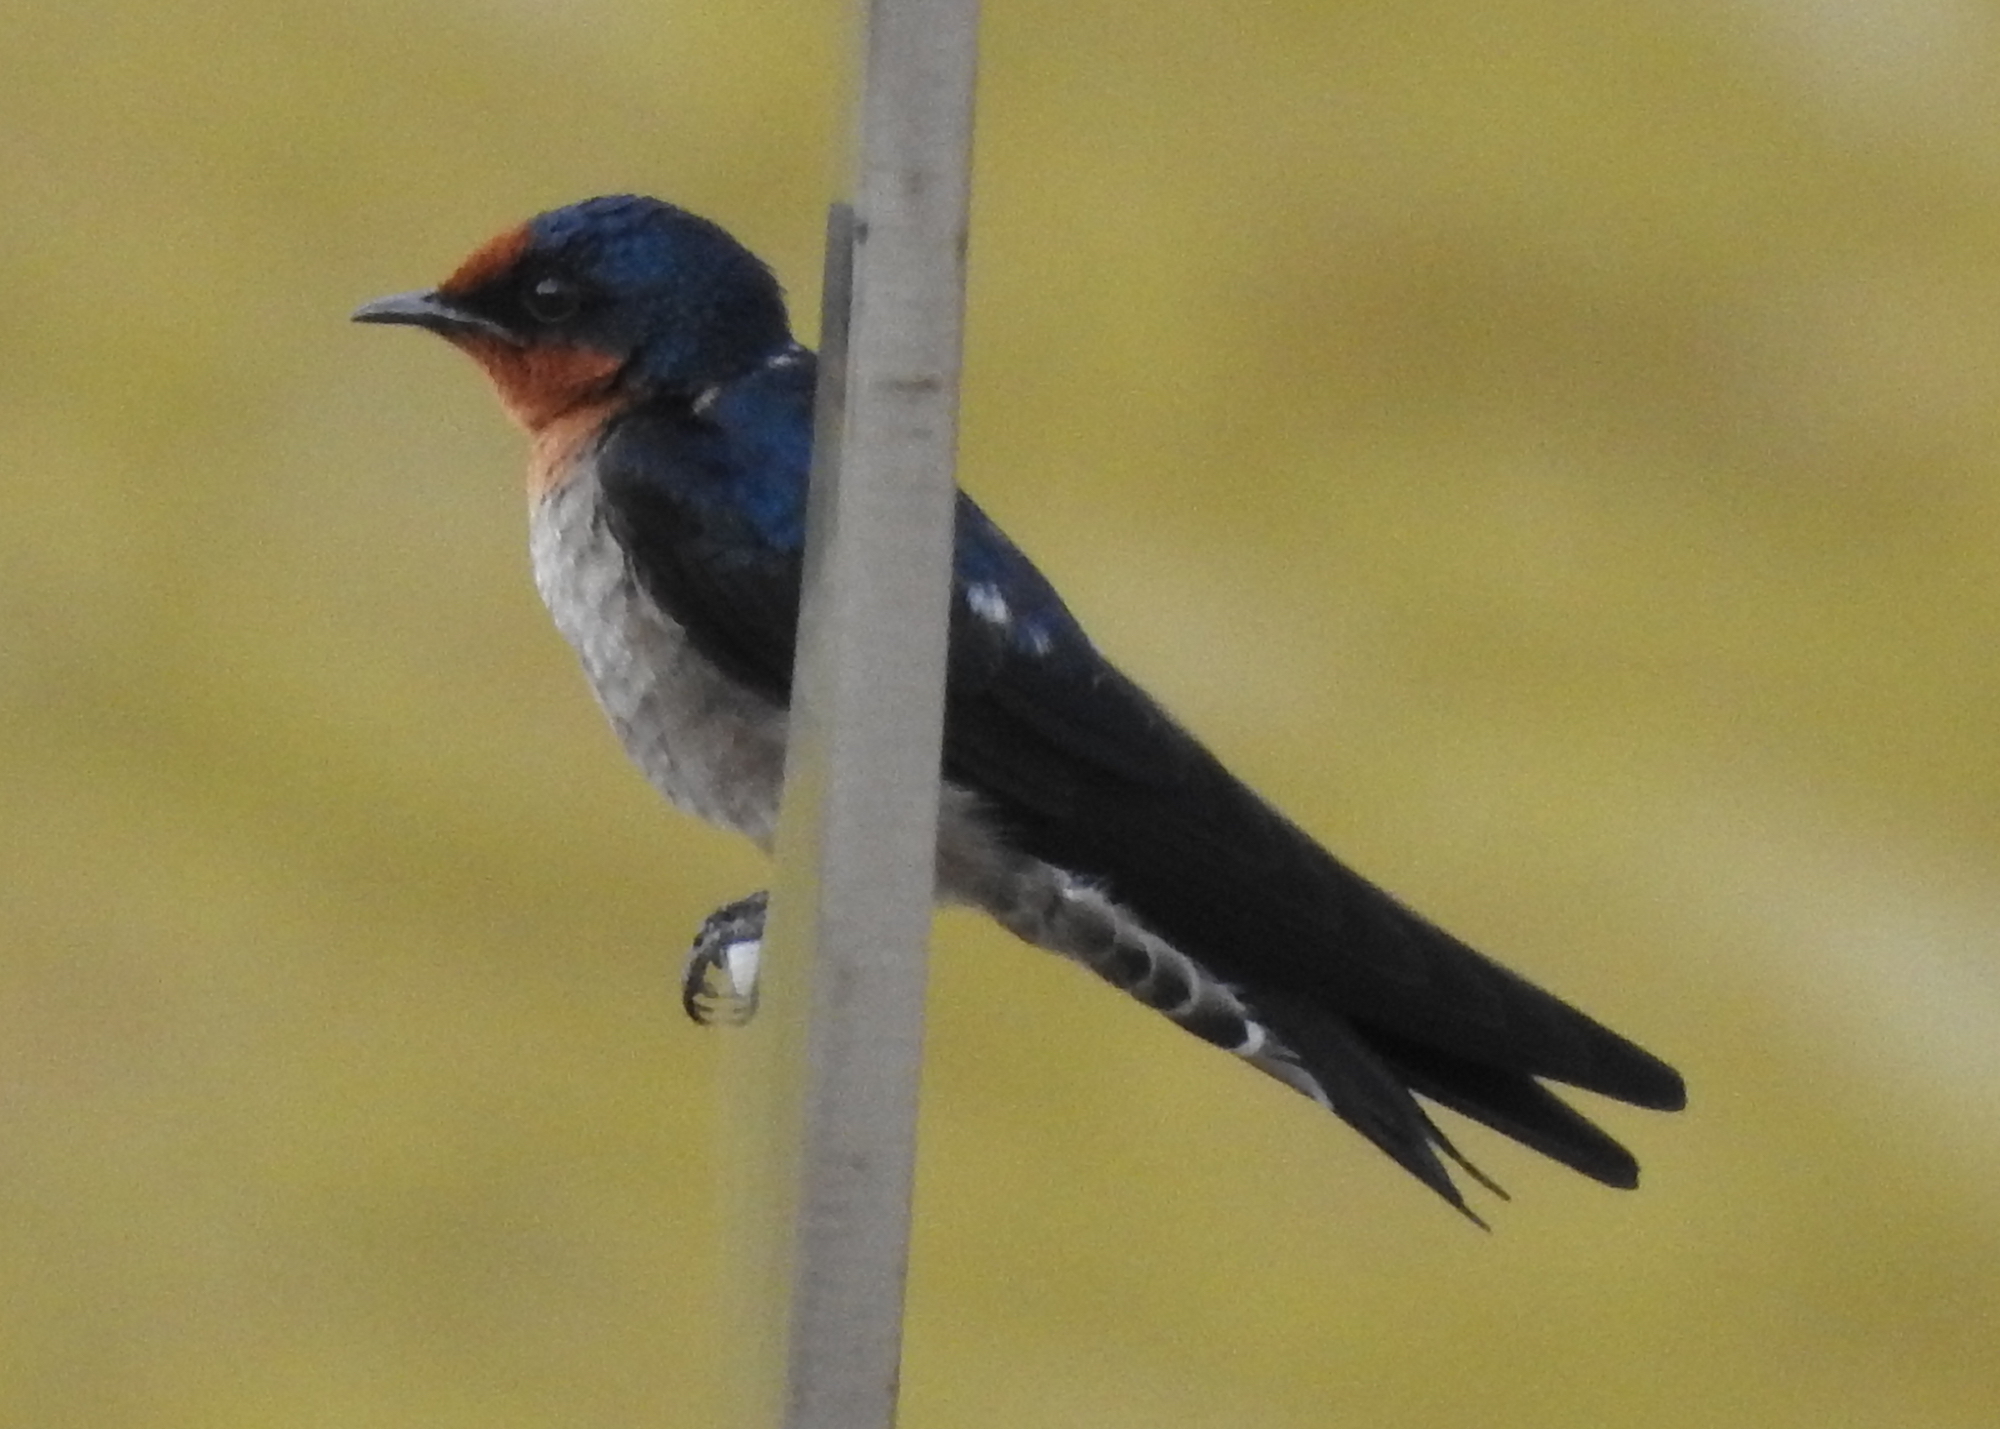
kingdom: Animalia
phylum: Chordata
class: Aves
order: Passeriformes
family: Hirundinidae
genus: Hirundo
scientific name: Hirundo tahitica
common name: Pacific swallow
